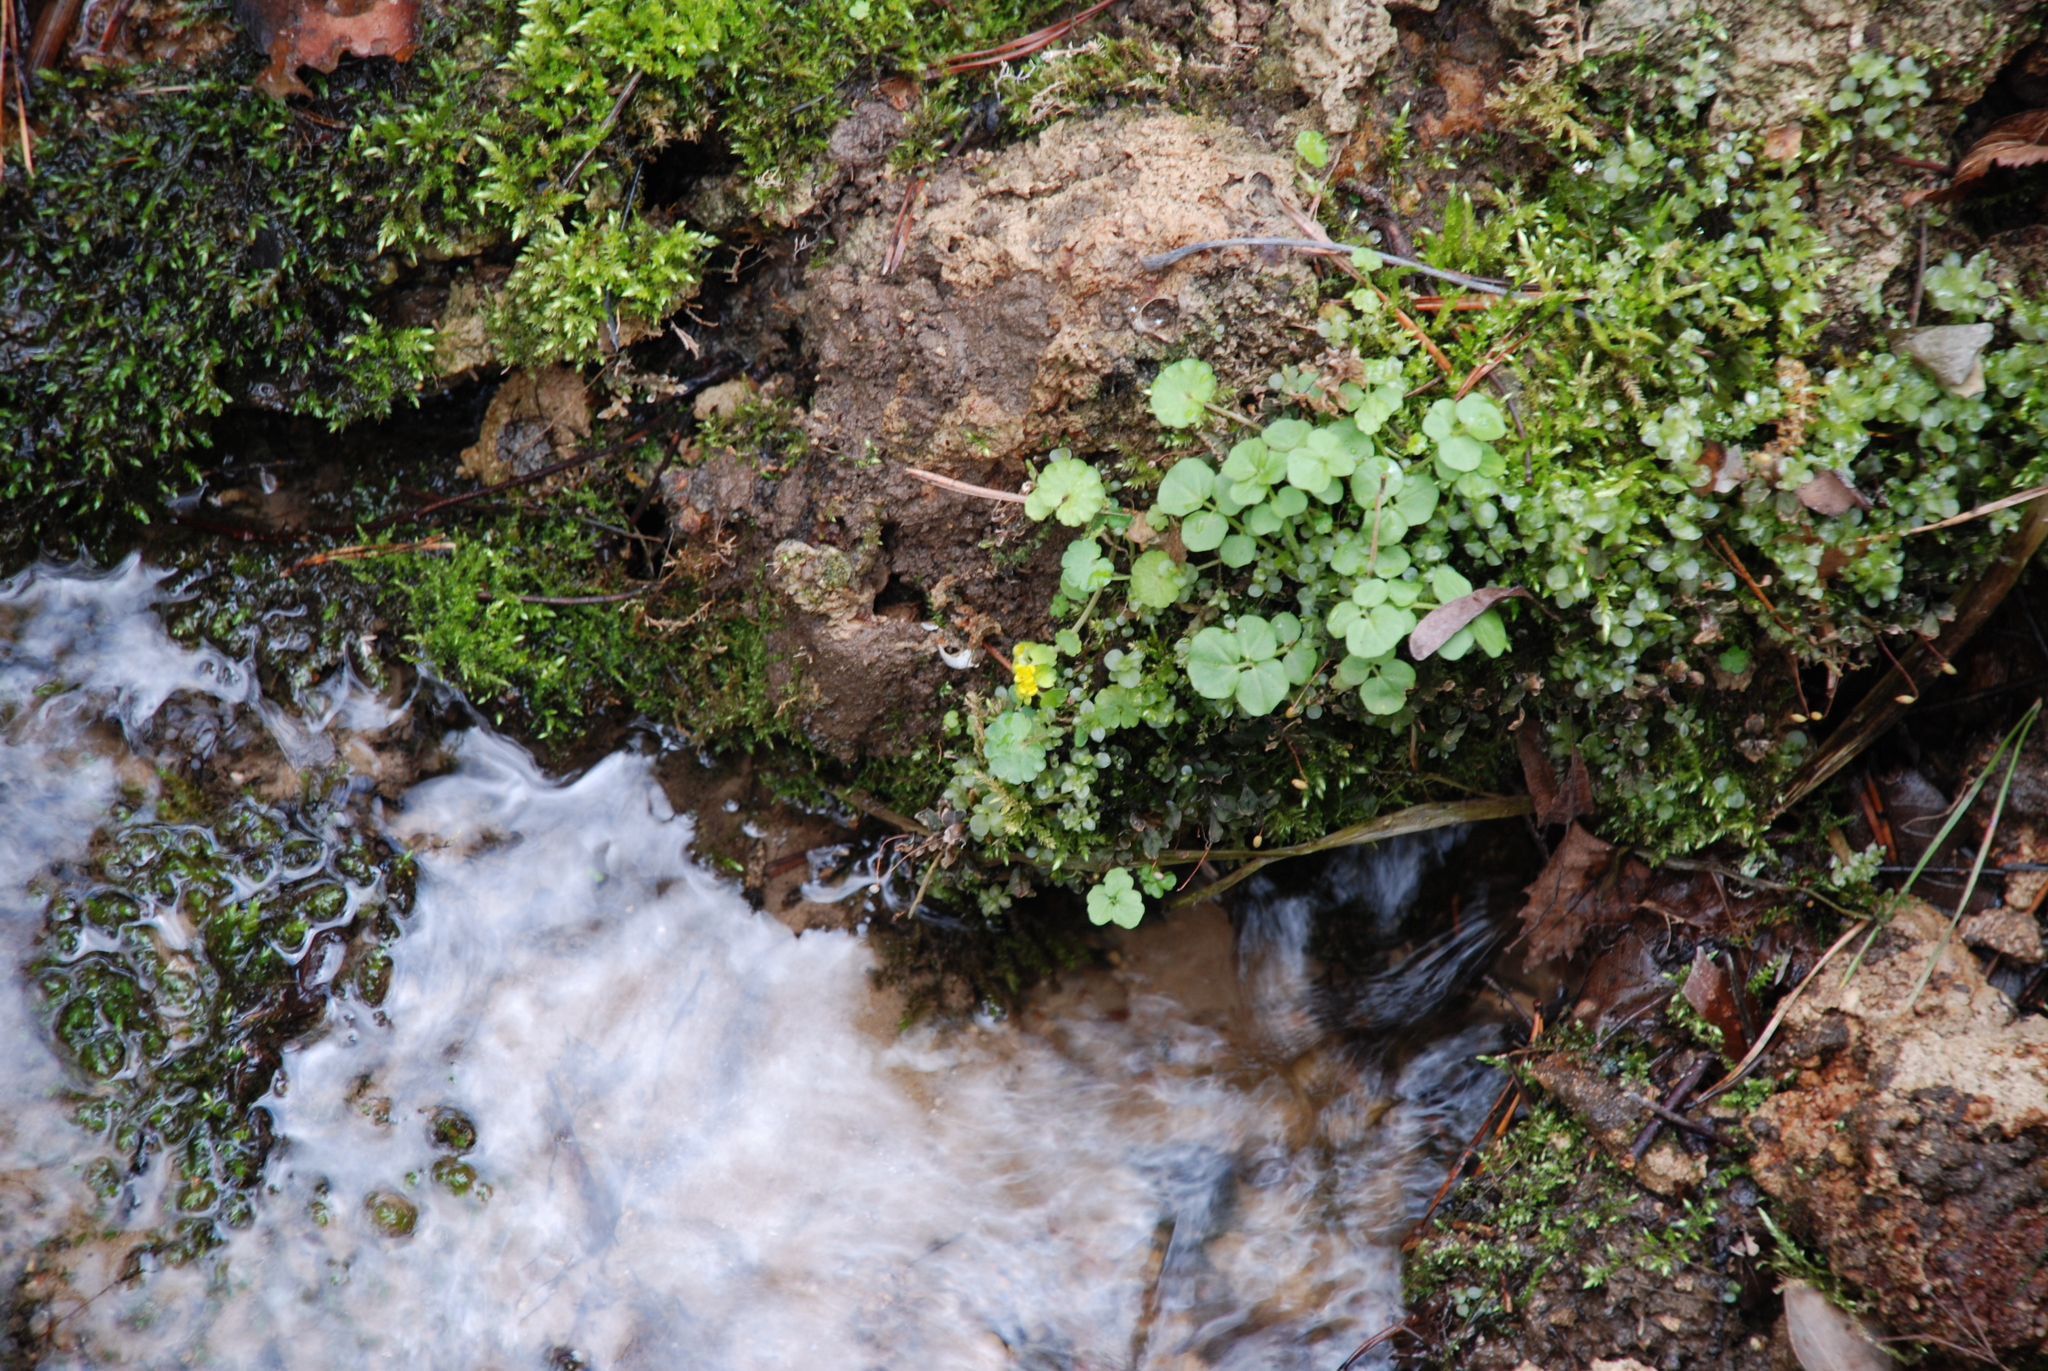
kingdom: Plantae
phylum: Tracheophyta
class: Magnoliopsida
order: Saxifragales
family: Saxifragaceae
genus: Chrysosplenium
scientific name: Chrysosplenium alternifolium
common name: Alternate-leaved golden-saxifrage
